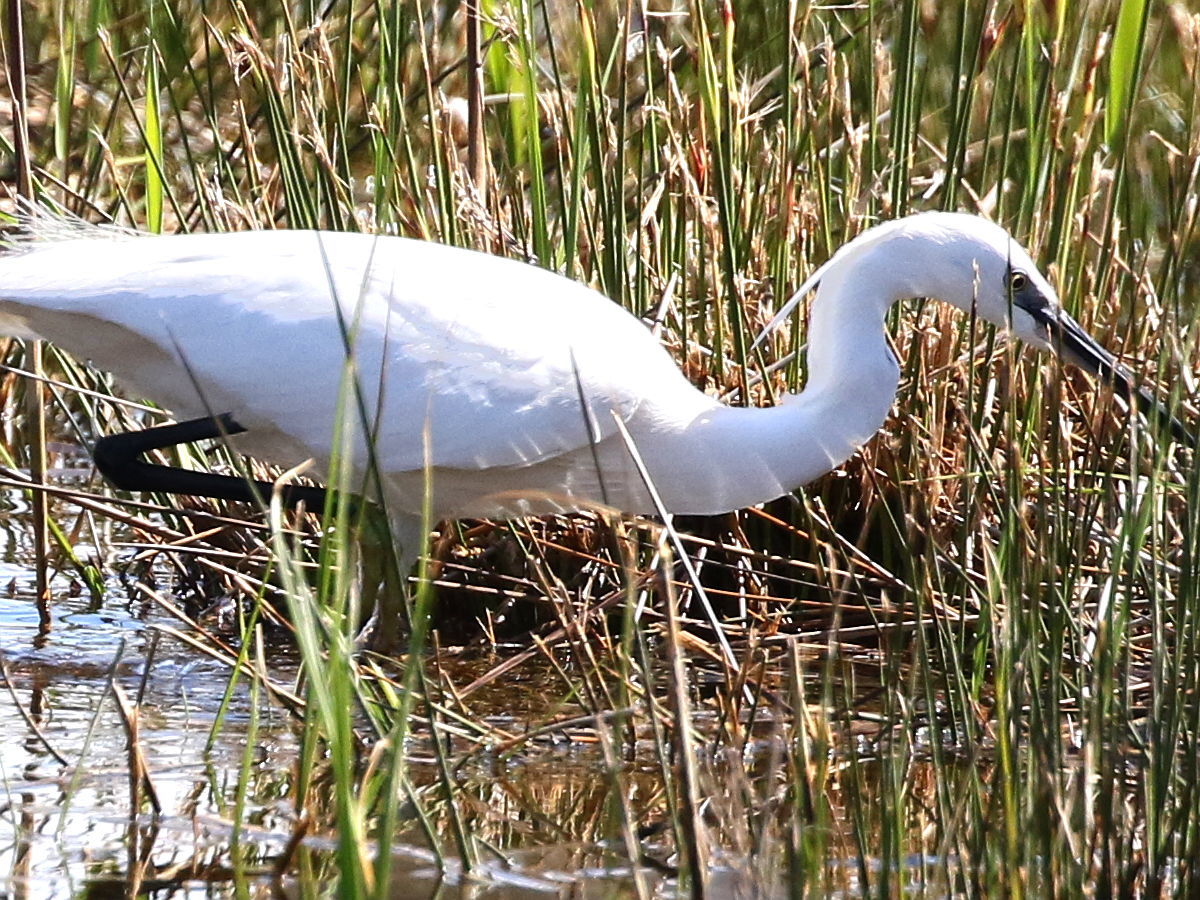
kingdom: Animalia
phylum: Chordata
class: Aves
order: Pelecaniformes
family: Ardeidae
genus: Egretta
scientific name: Egretta garzetta
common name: Little egret
